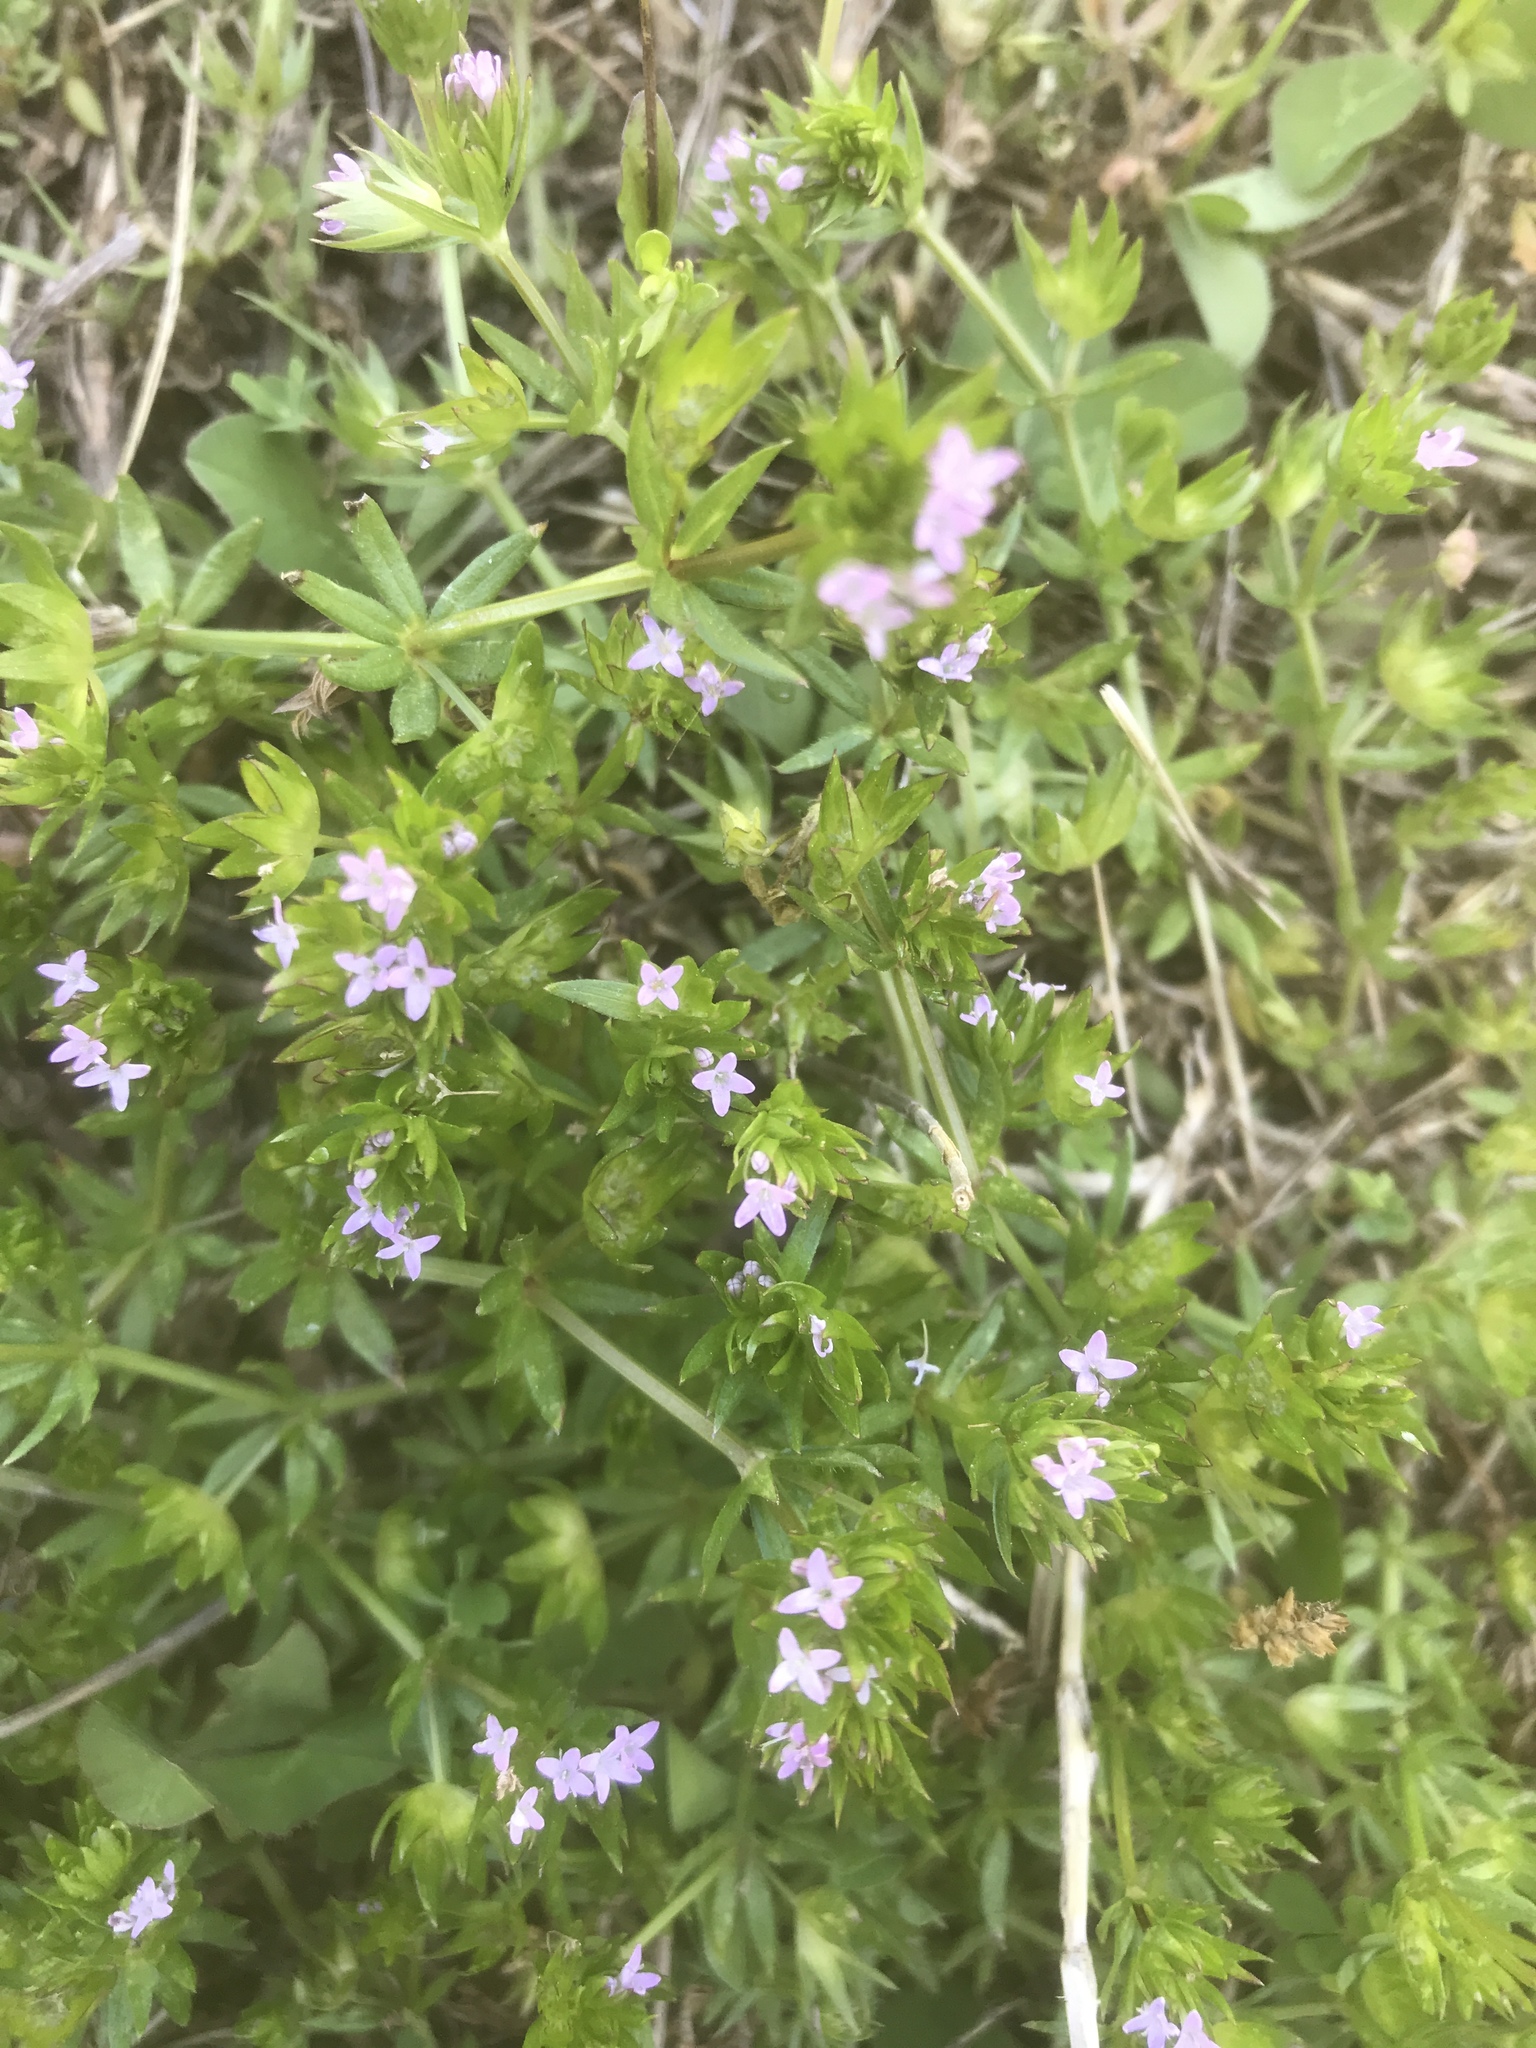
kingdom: Plantae
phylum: Tracheophyta
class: Magnoliopsida
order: Gentianales
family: Rubiaceae
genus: Sherardia
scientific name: Sherardia arvensis
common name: Field madder
